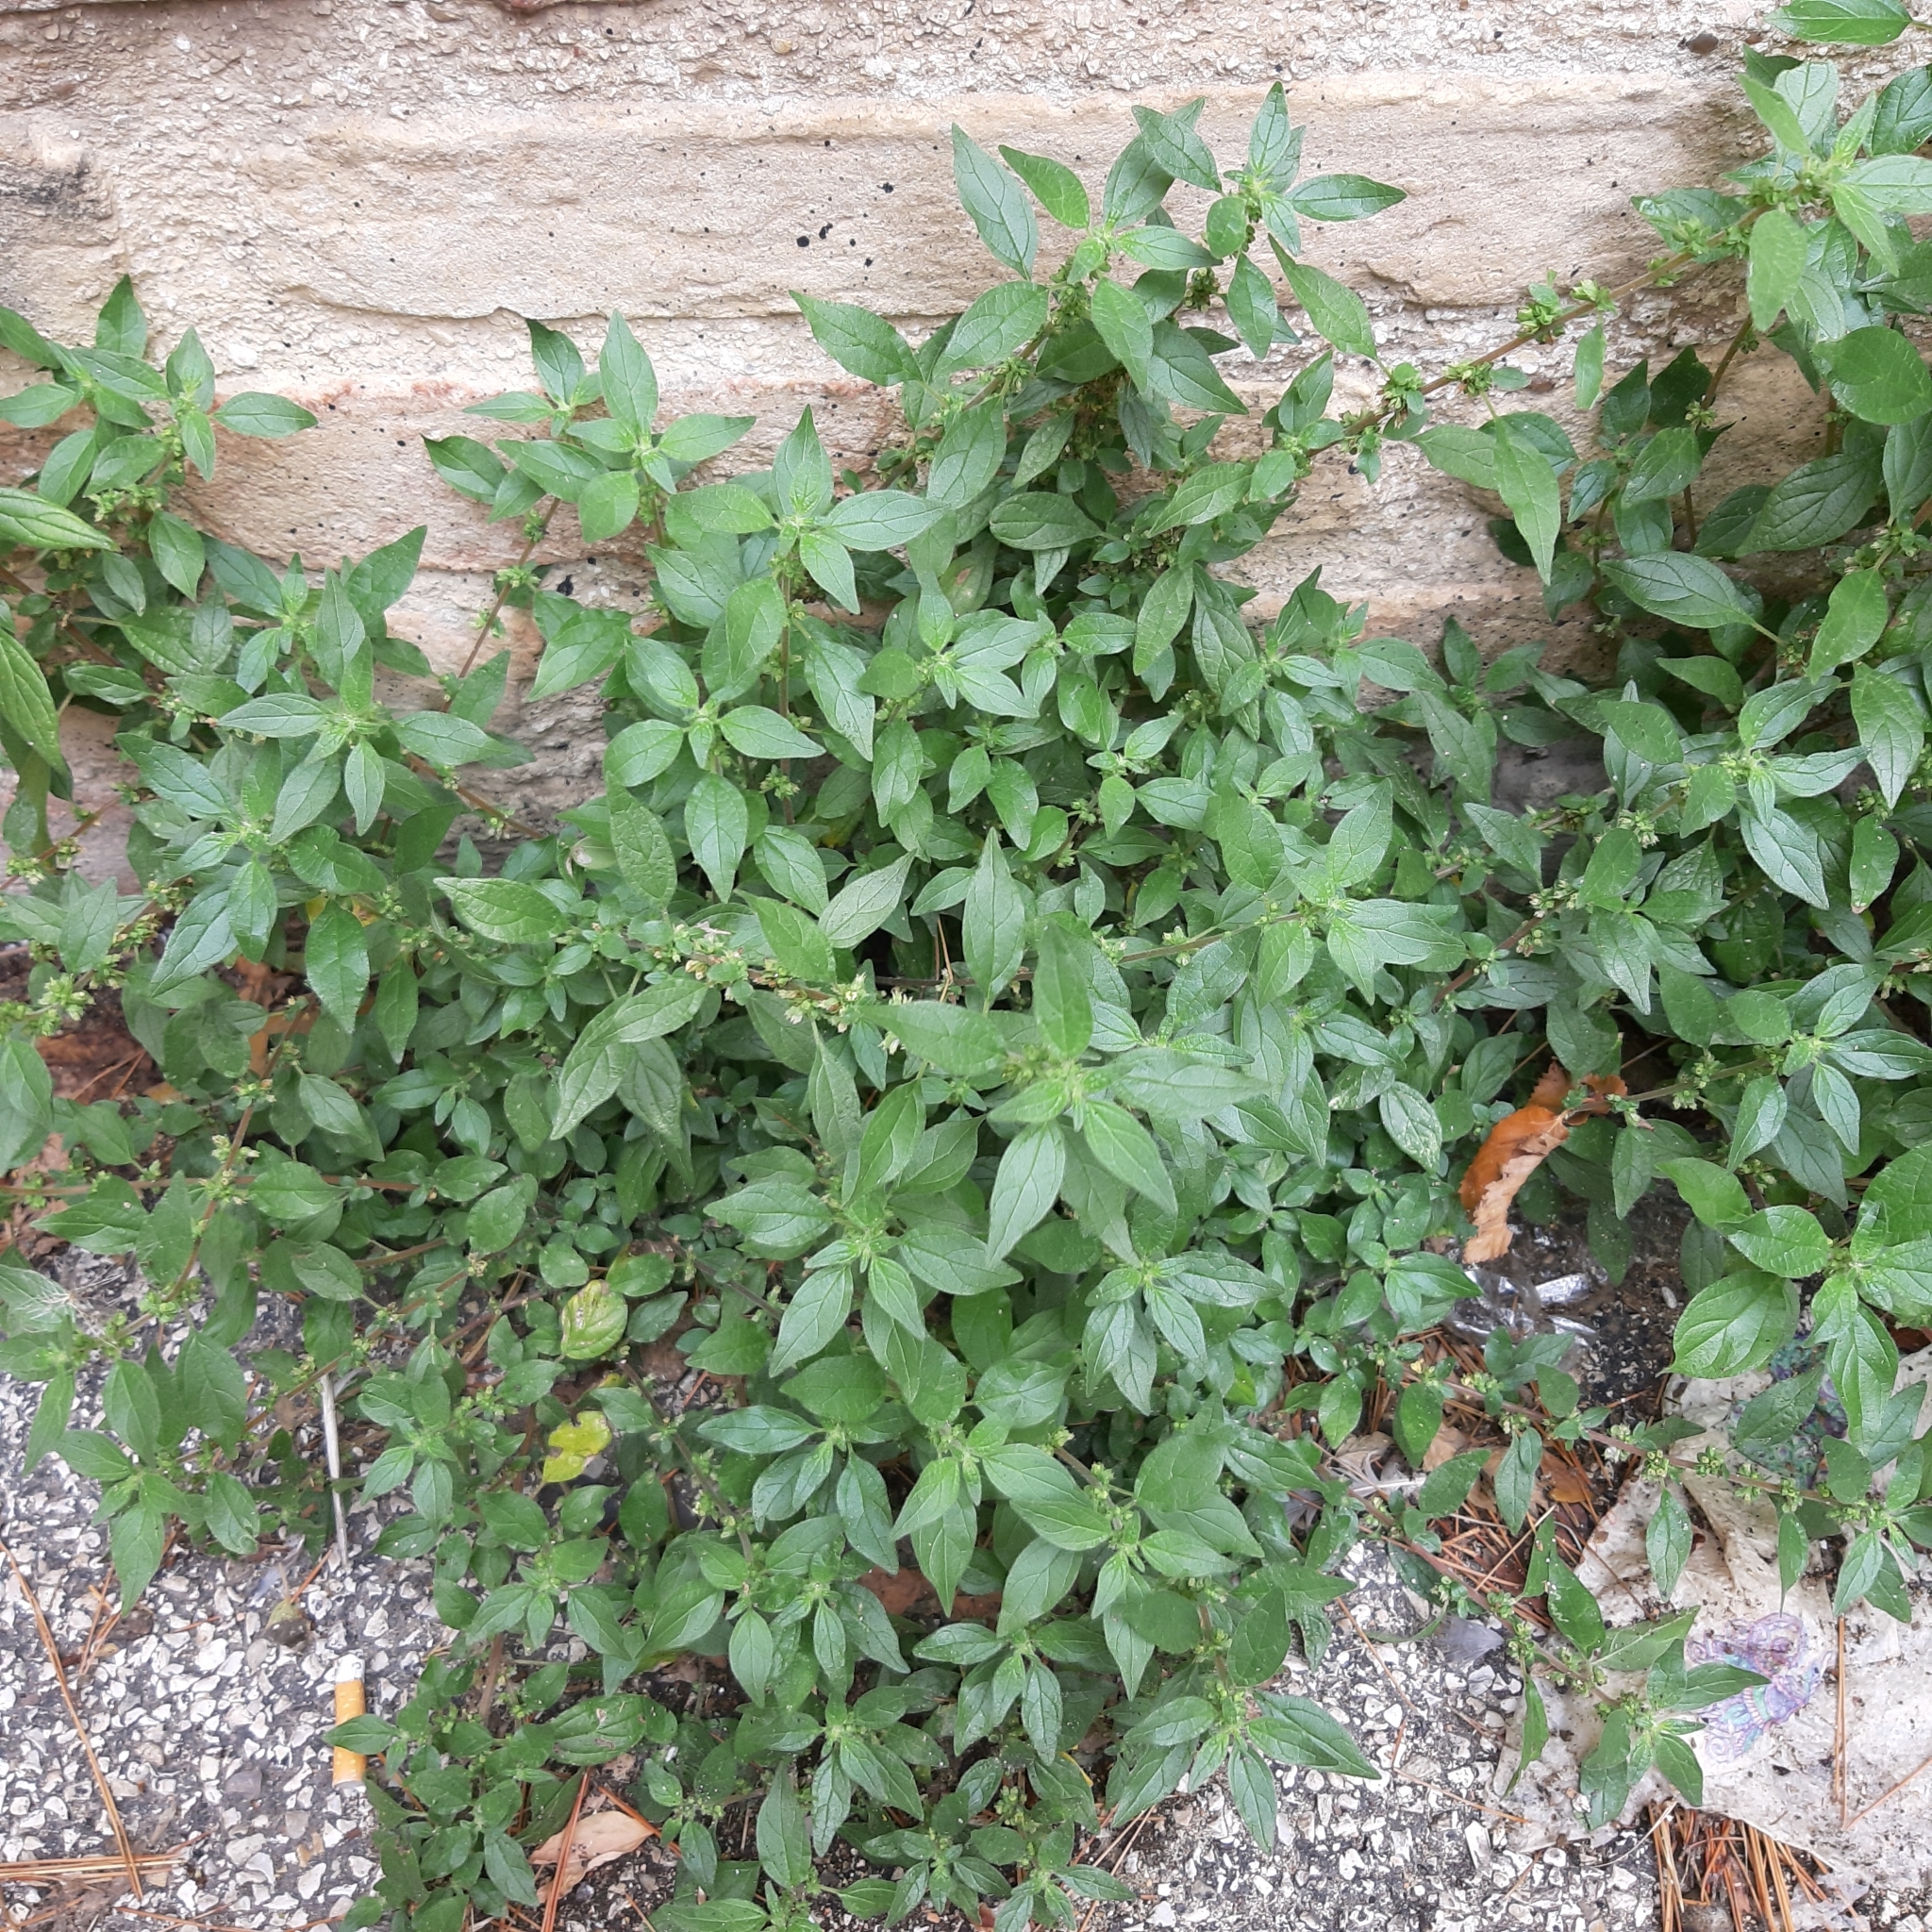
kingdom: Plantae
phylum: Tracheophyta
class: Magnoliopsida
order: Rosales
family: Urticaceae
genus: Parietaria
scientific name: Parietaria judaica
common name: Pellitory-of-the-wall
